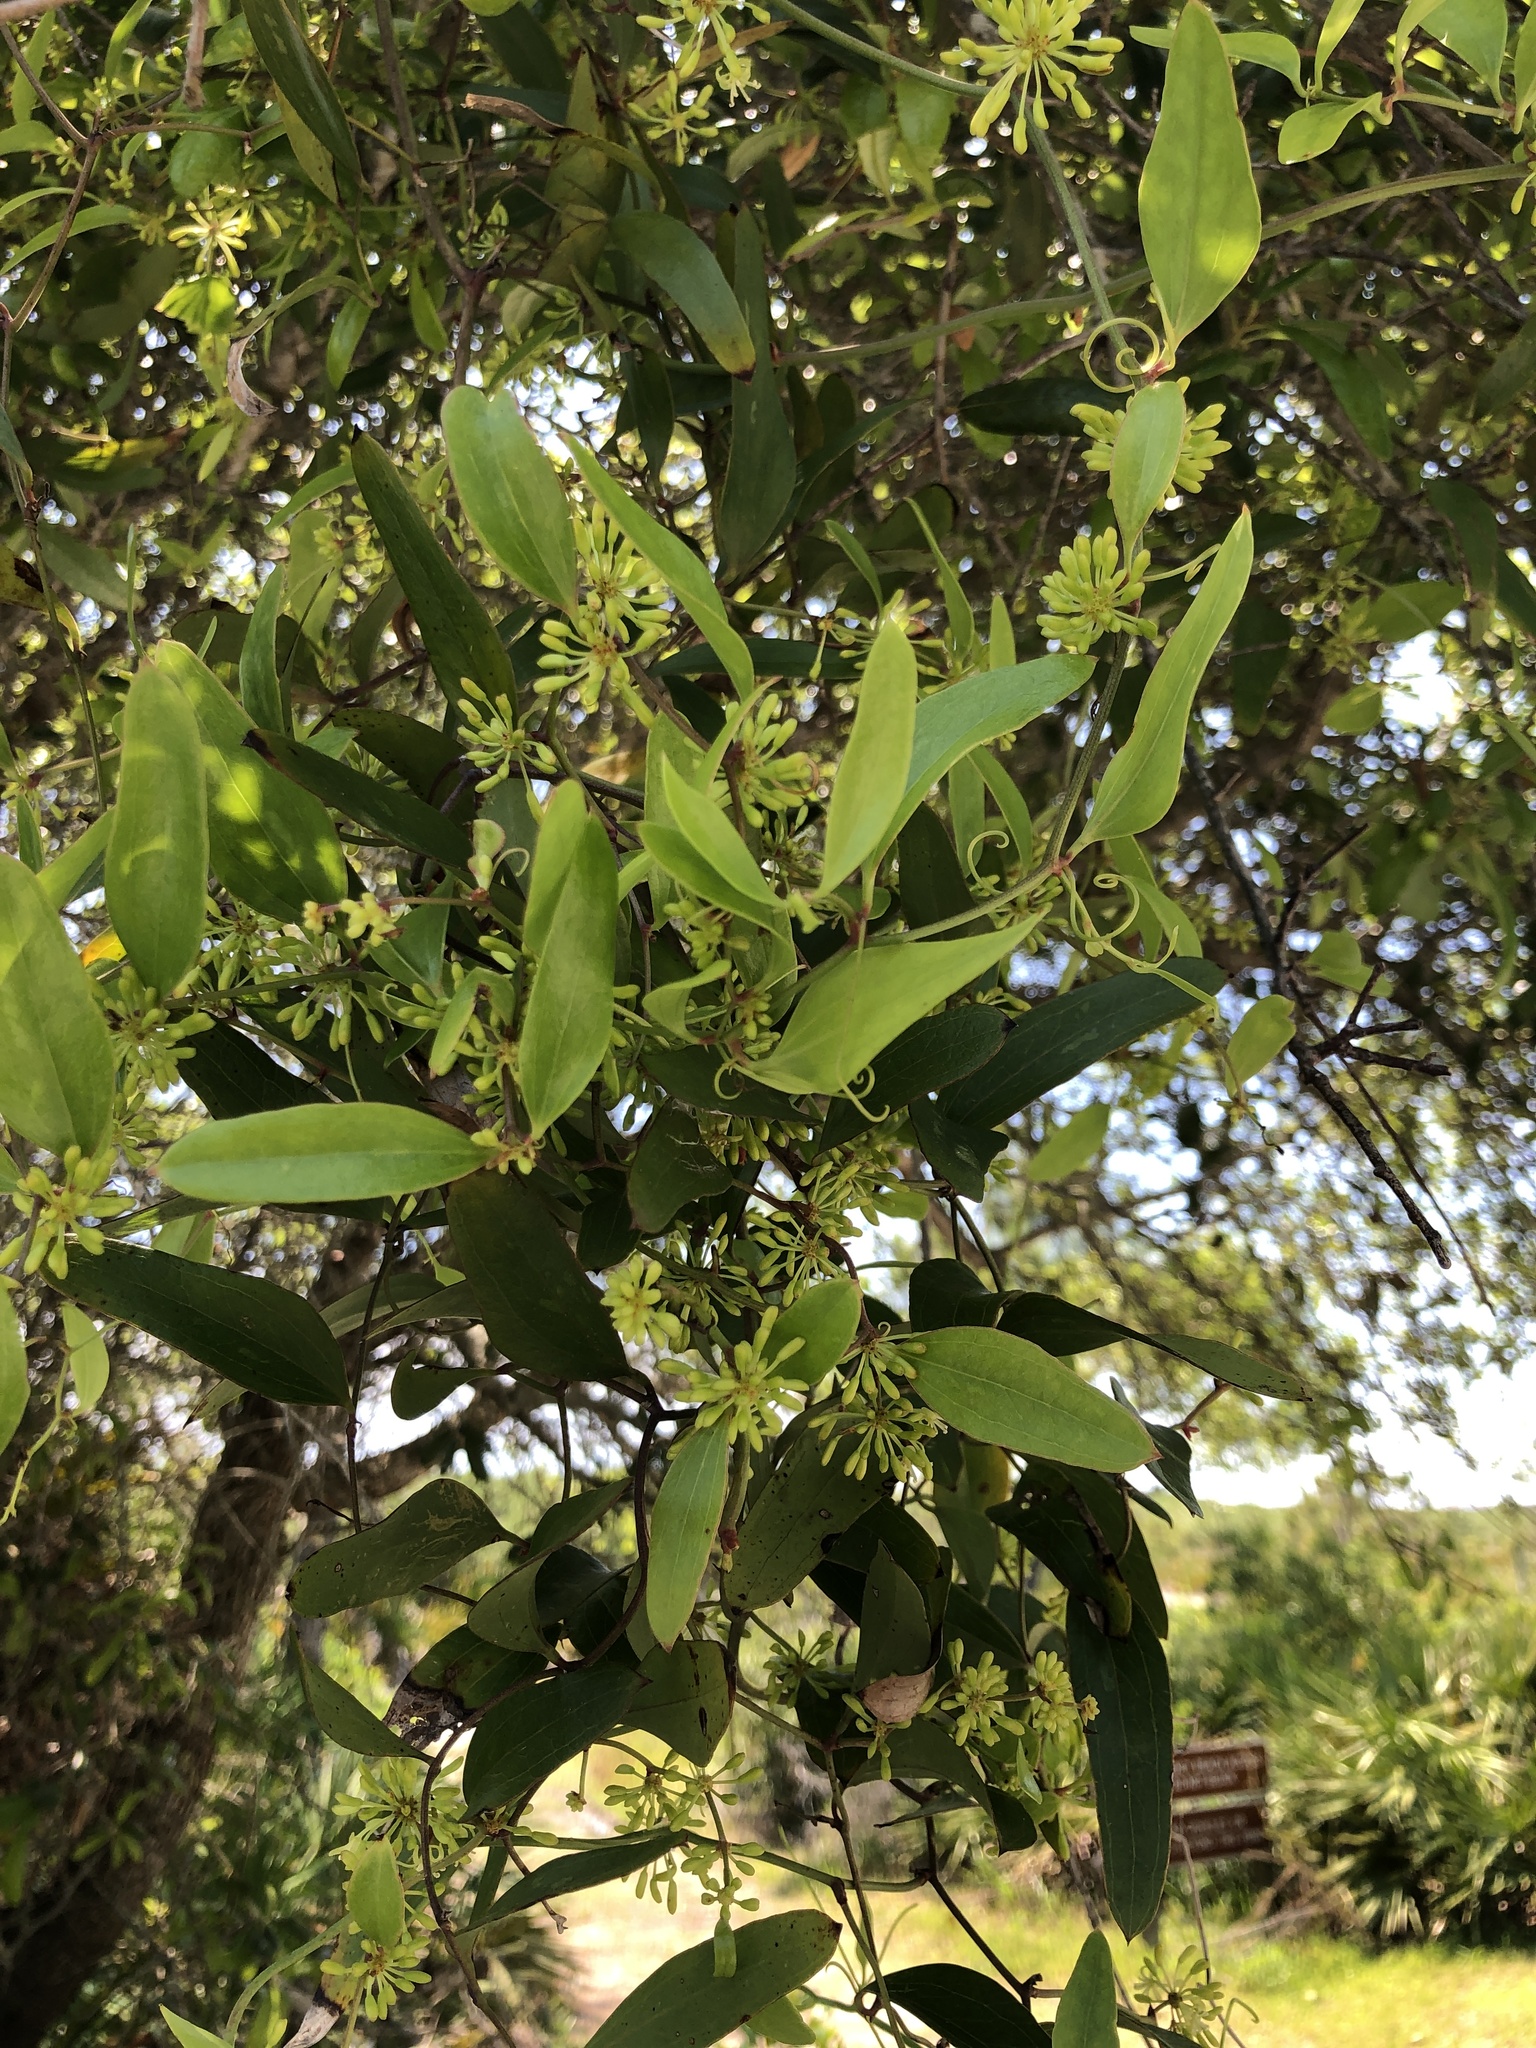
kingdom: Plantae
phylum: Tracheophyta
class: Liliopsida
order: Liliales
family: Smilacaceae
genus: Smilax
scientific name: Smilax laurifolia
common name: Bamboovine
